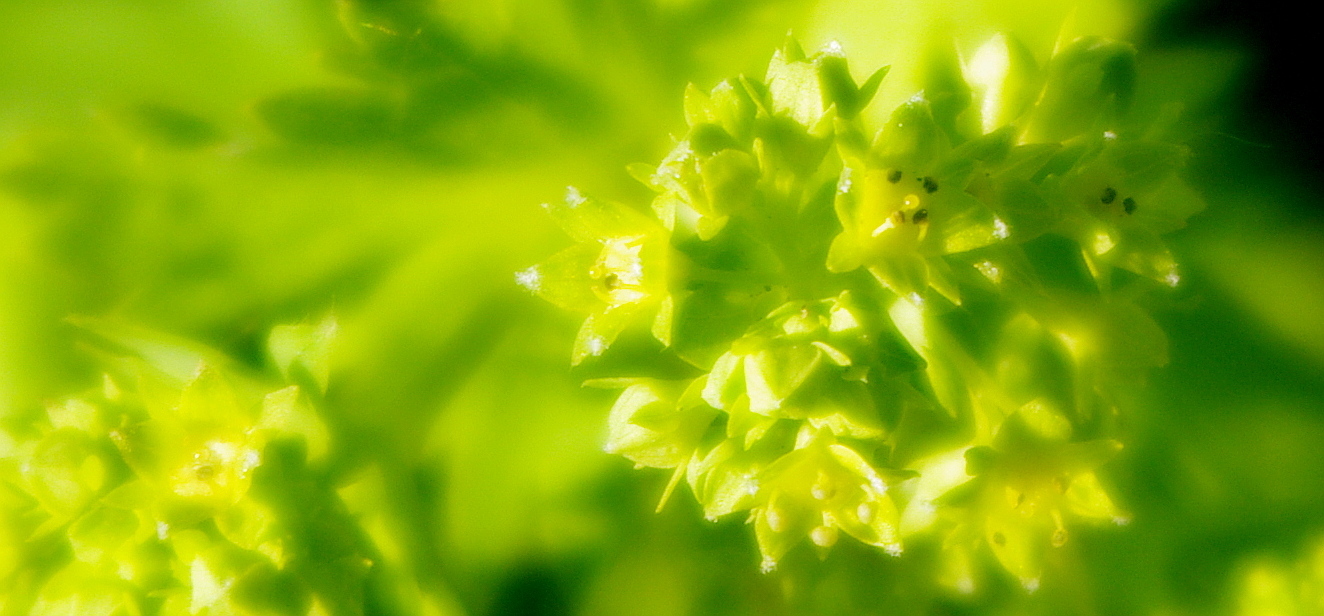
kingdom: Plantae
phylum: Tracheophyta
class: Magnoliopsida
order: Rosales
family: Rosaceae
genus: Alchemilla
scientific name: Alchemilla micans
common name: Gleaming lady's mantle
